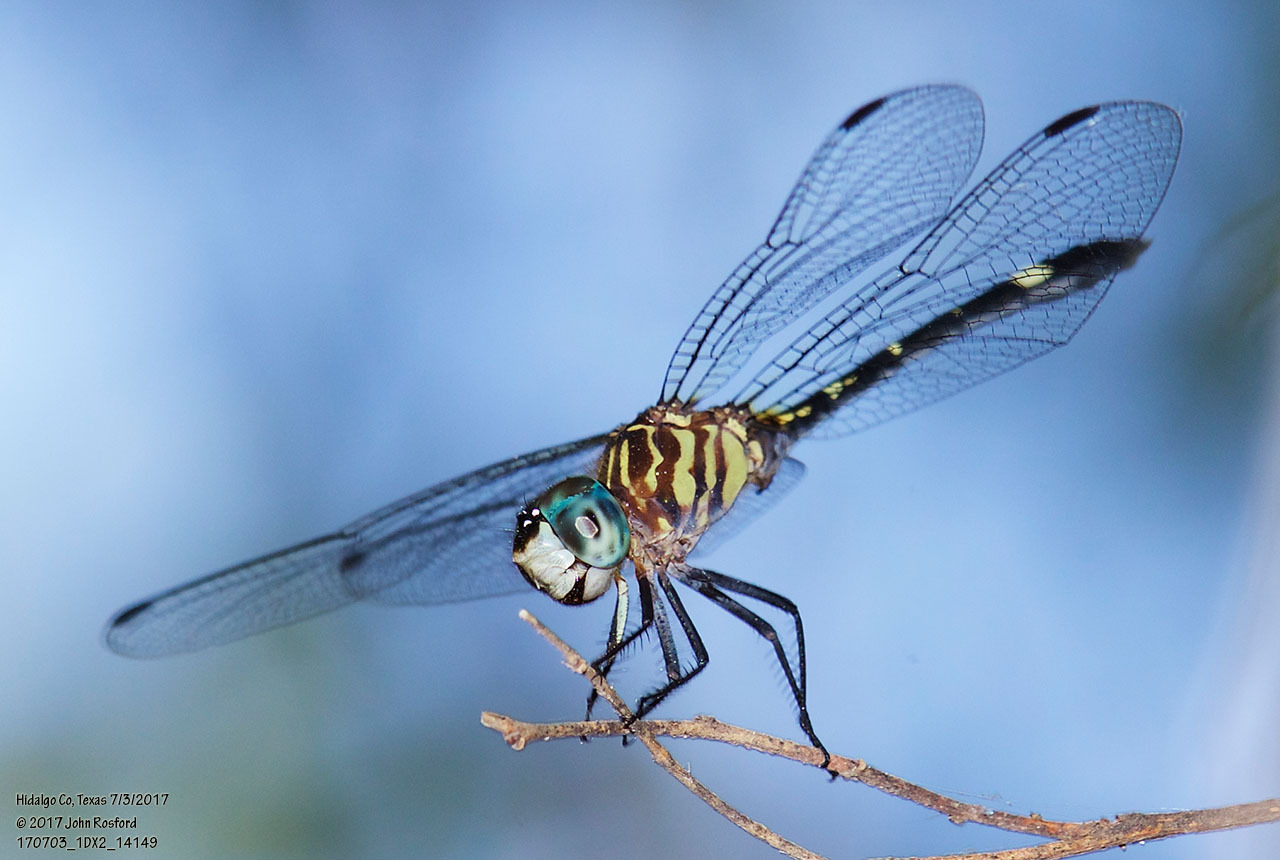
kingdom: Animalia
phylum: Arthropoda
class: Insecta
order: Odonata
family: Libellulidae
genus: Micrathyria
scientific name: Micrathyria didyma
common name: Three-striped dasher
